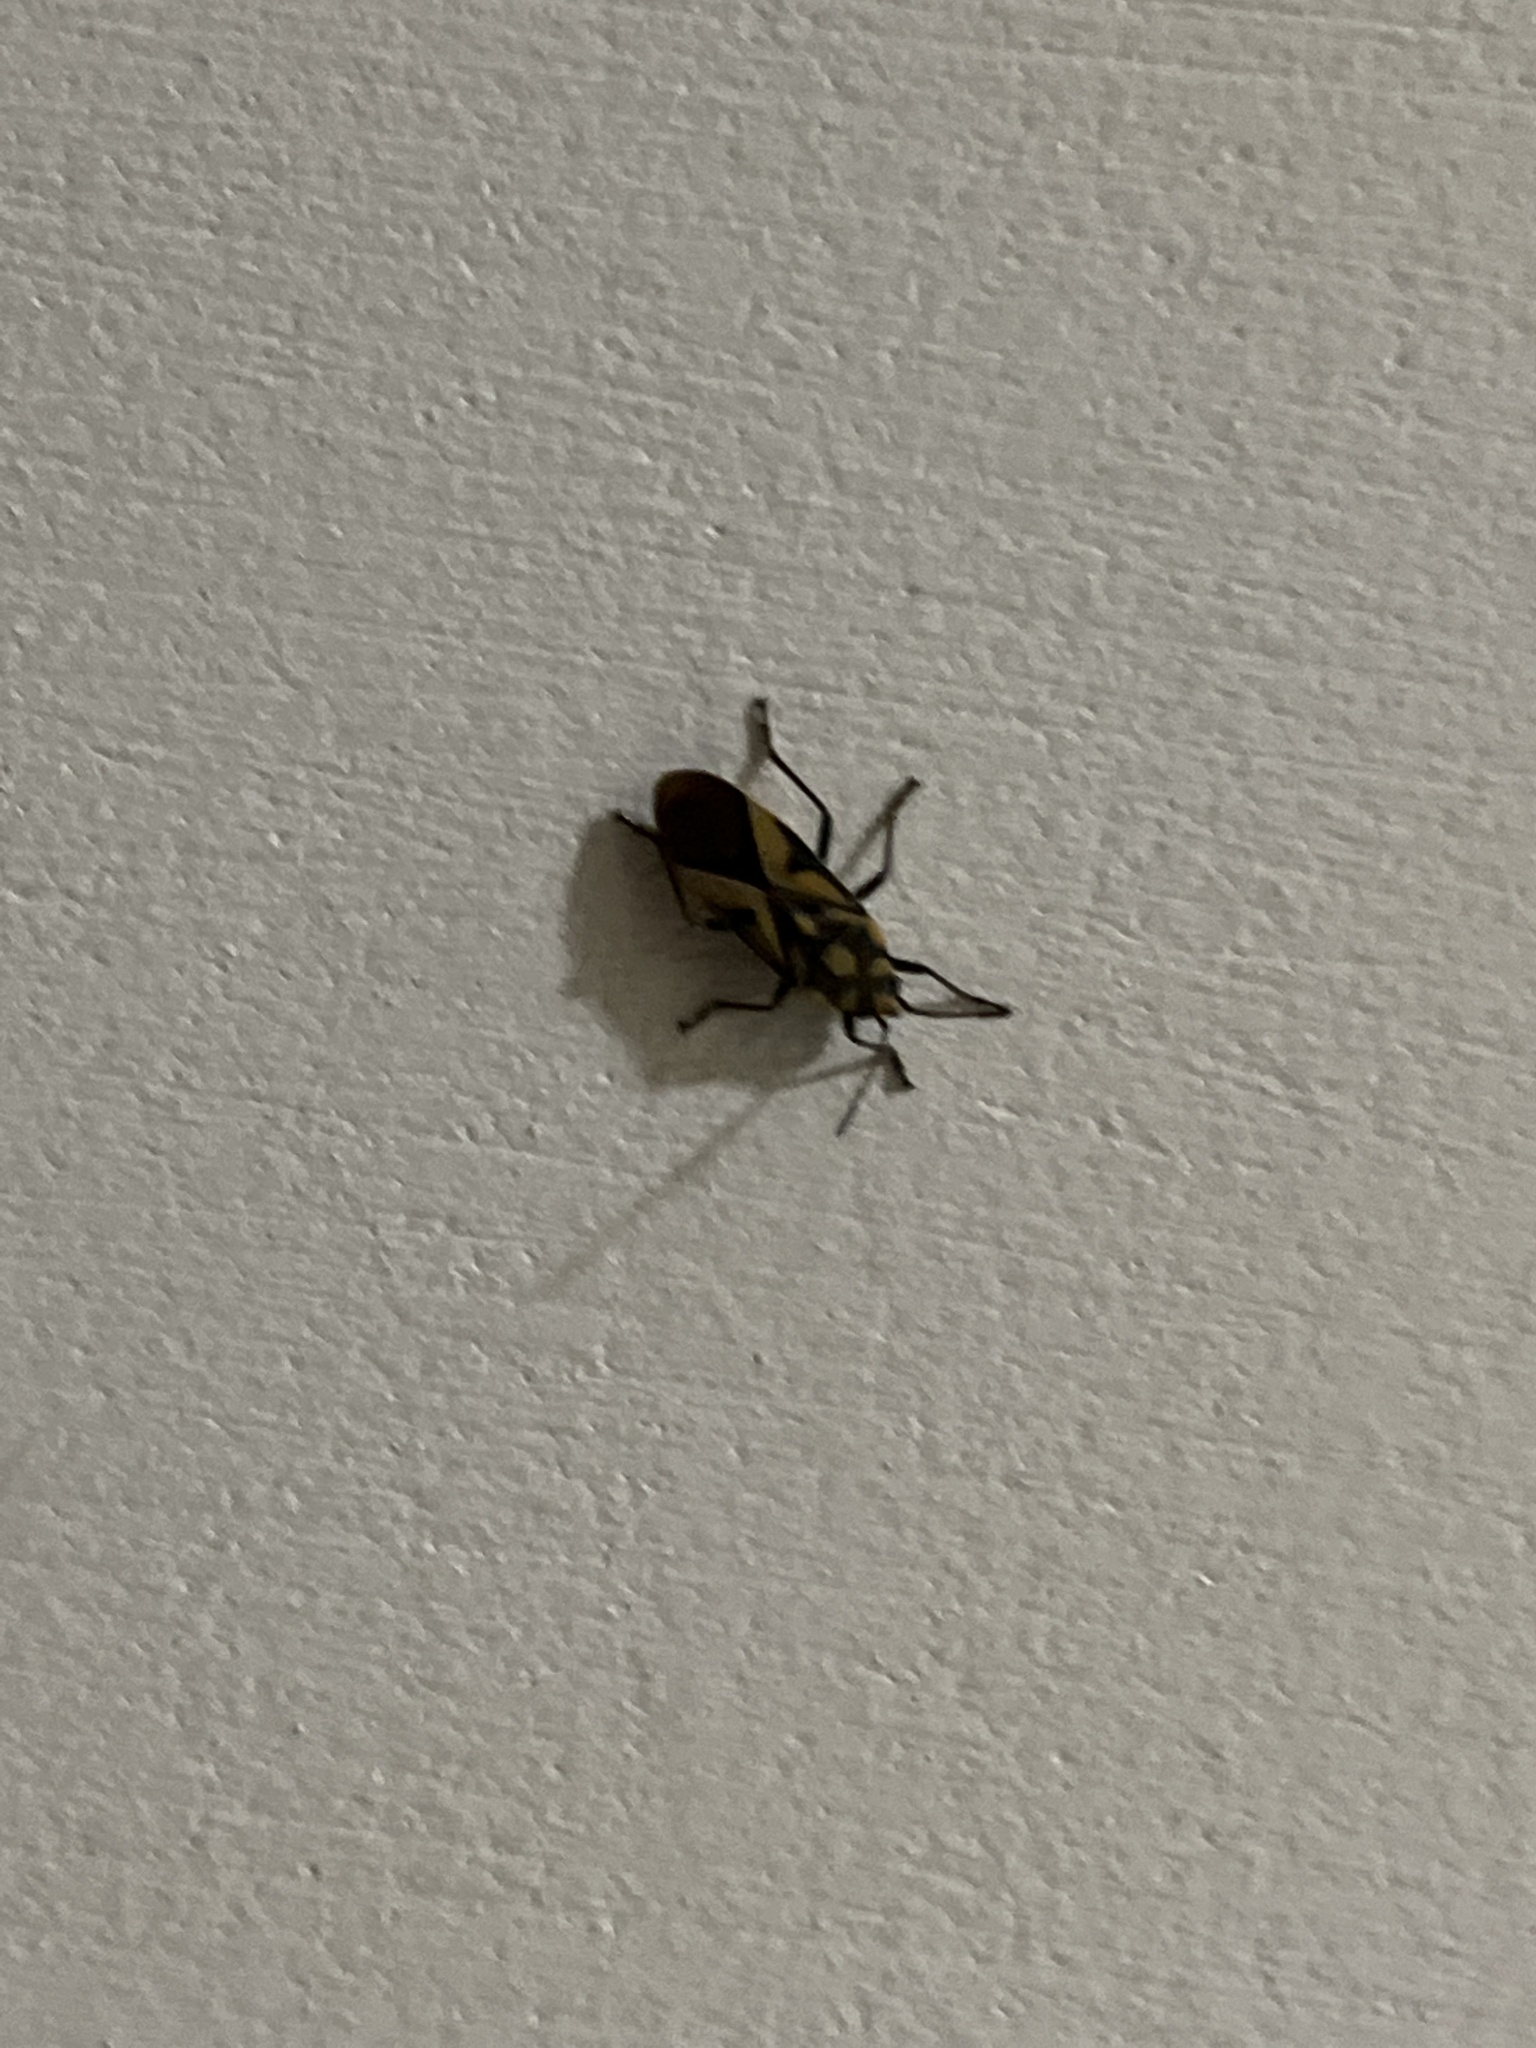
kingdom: Animalia
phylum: Arthropoda
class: Insecta
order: Hemiptera
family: Lygaeidae
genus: Spilostethus
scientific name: Spilostethus furcula
